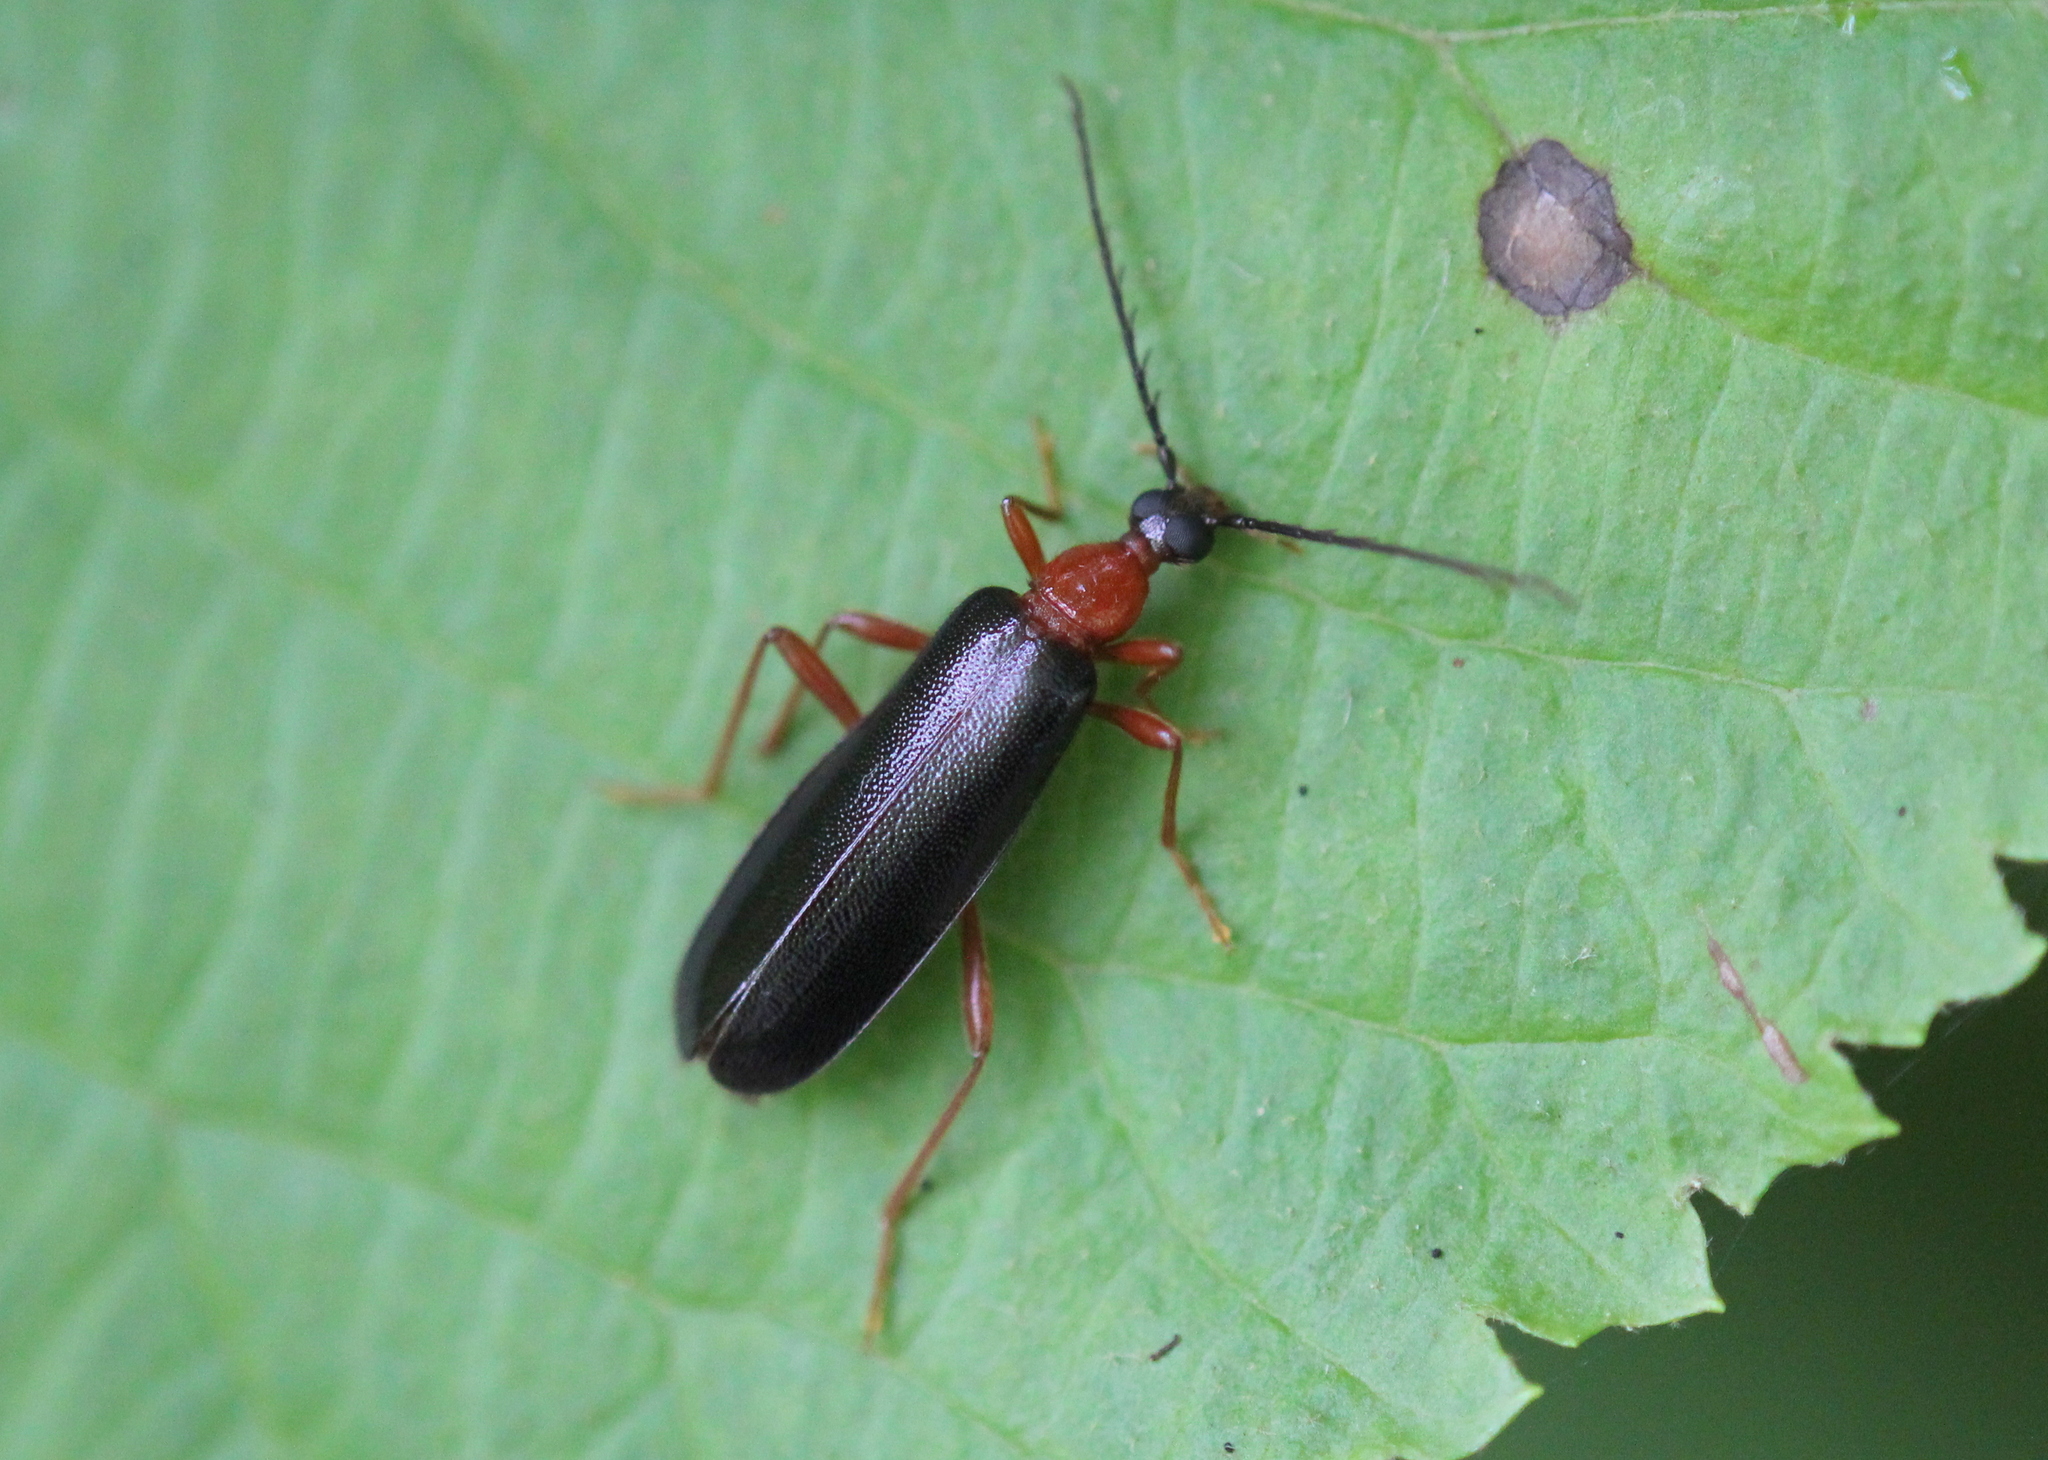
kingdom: Animalia
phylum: Arthropoda
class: Insecta
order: Coleoptera
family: Pyrochroidae
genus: Dendroides
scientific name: Dendroides canadensis
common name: Canada fire-colored beetle
